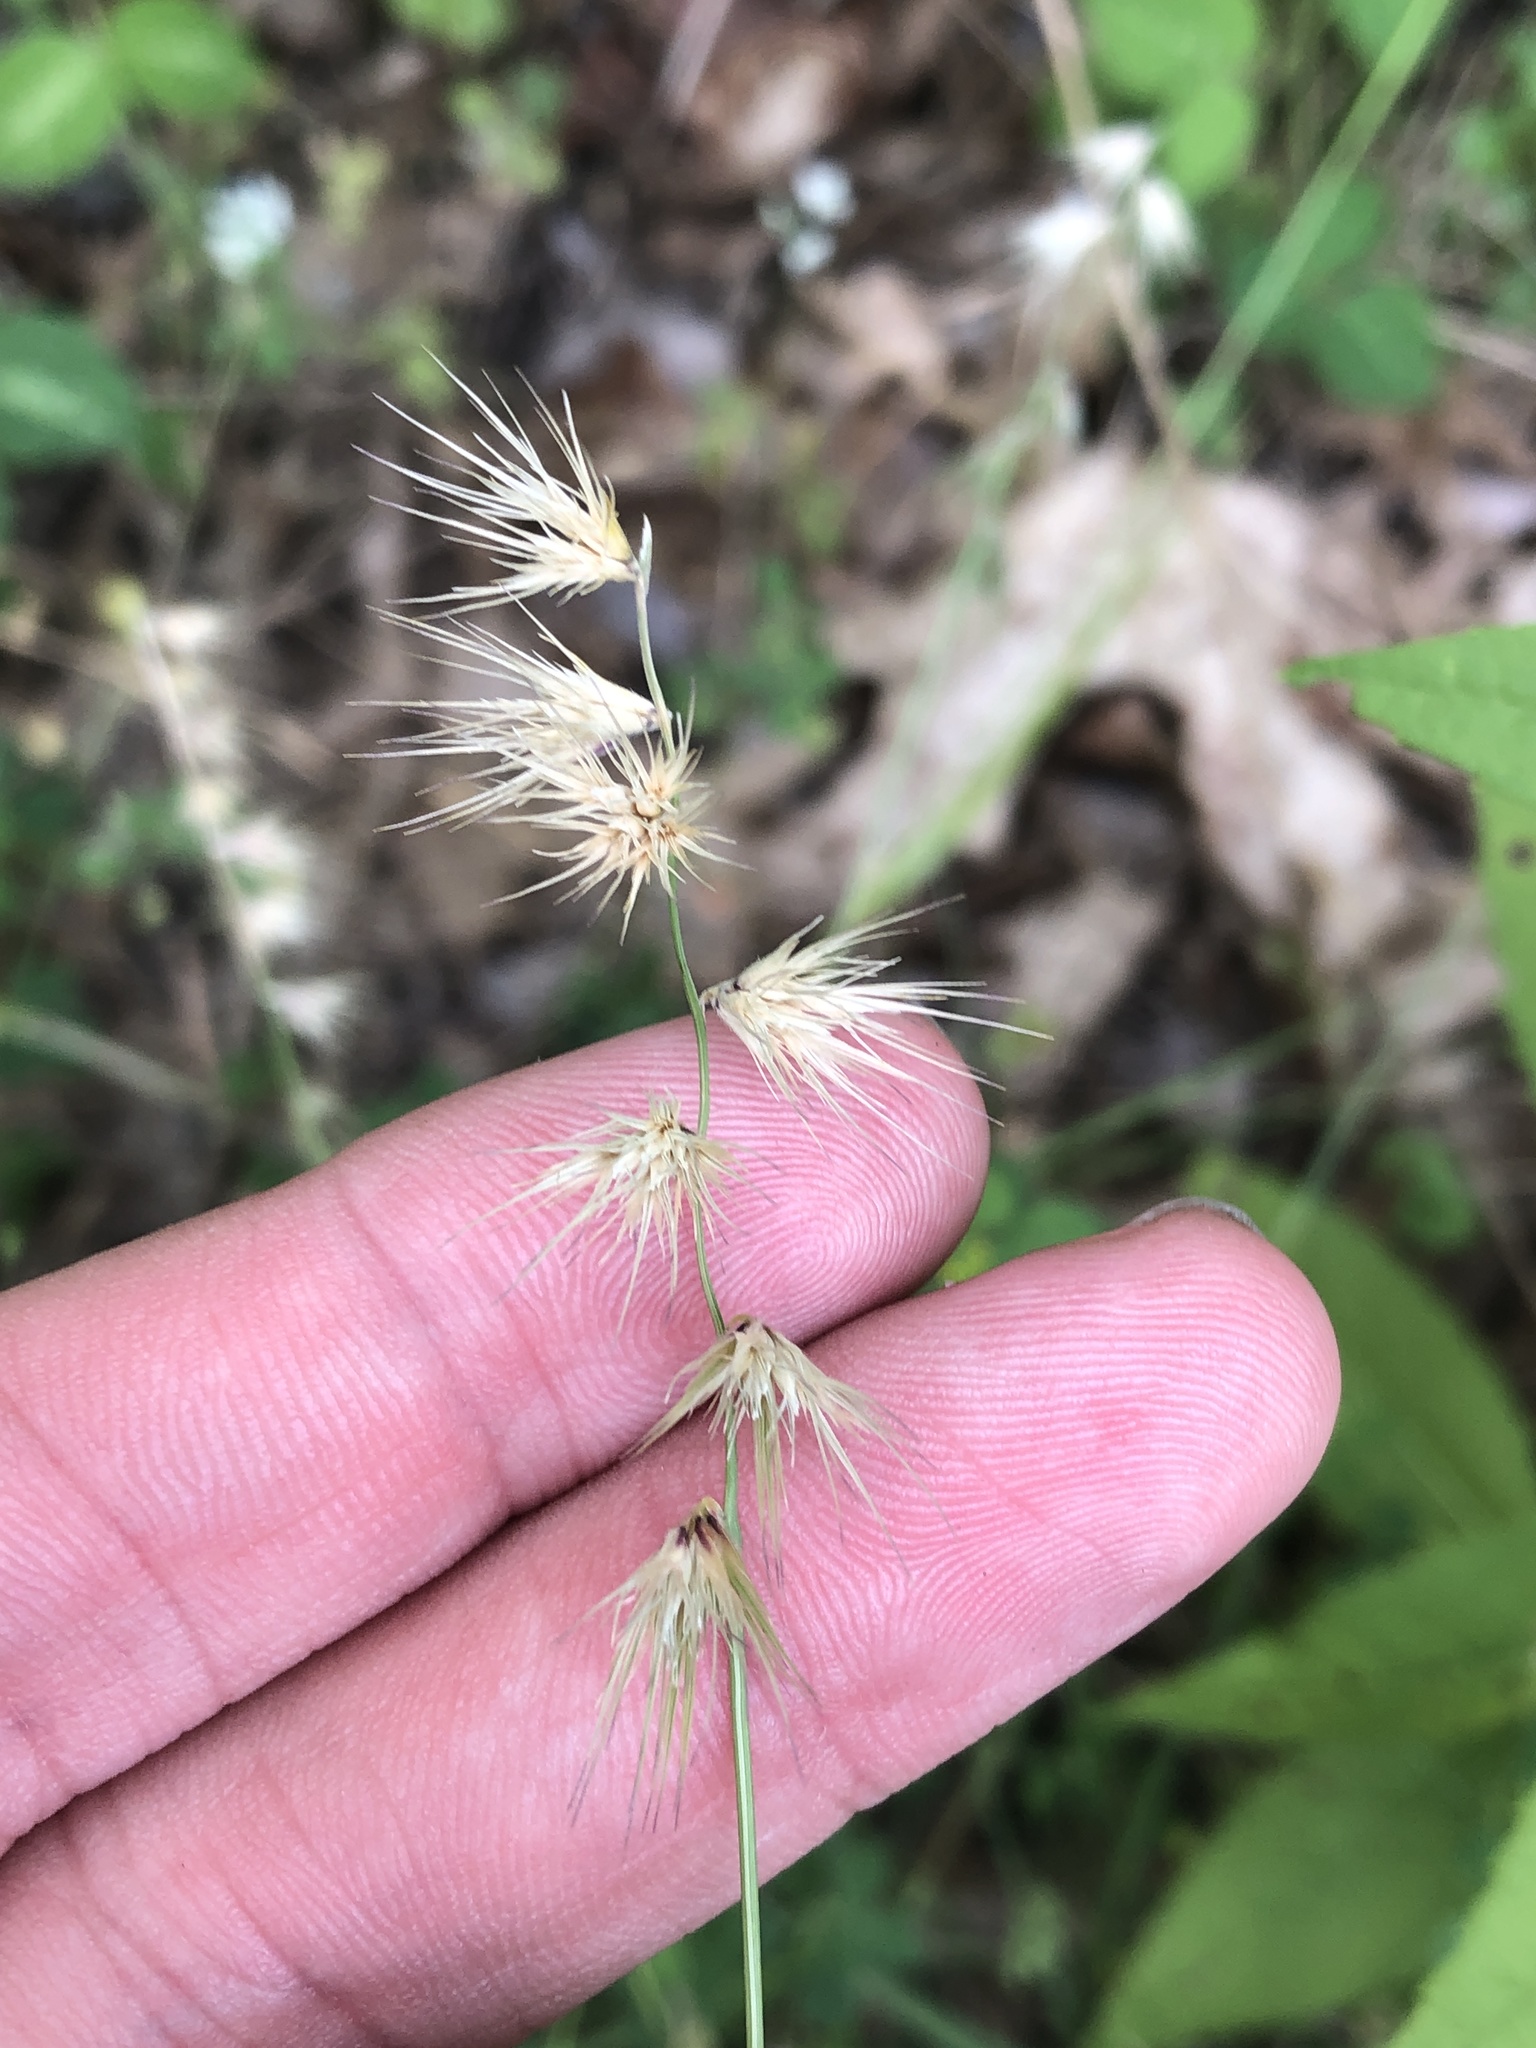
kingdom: Plantae
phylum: Tracheophyta
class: Liliopsida
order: Poales
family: Poaceae
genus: Bouteloua
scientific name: Bouteloua rigidiseta
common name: Texas grama
